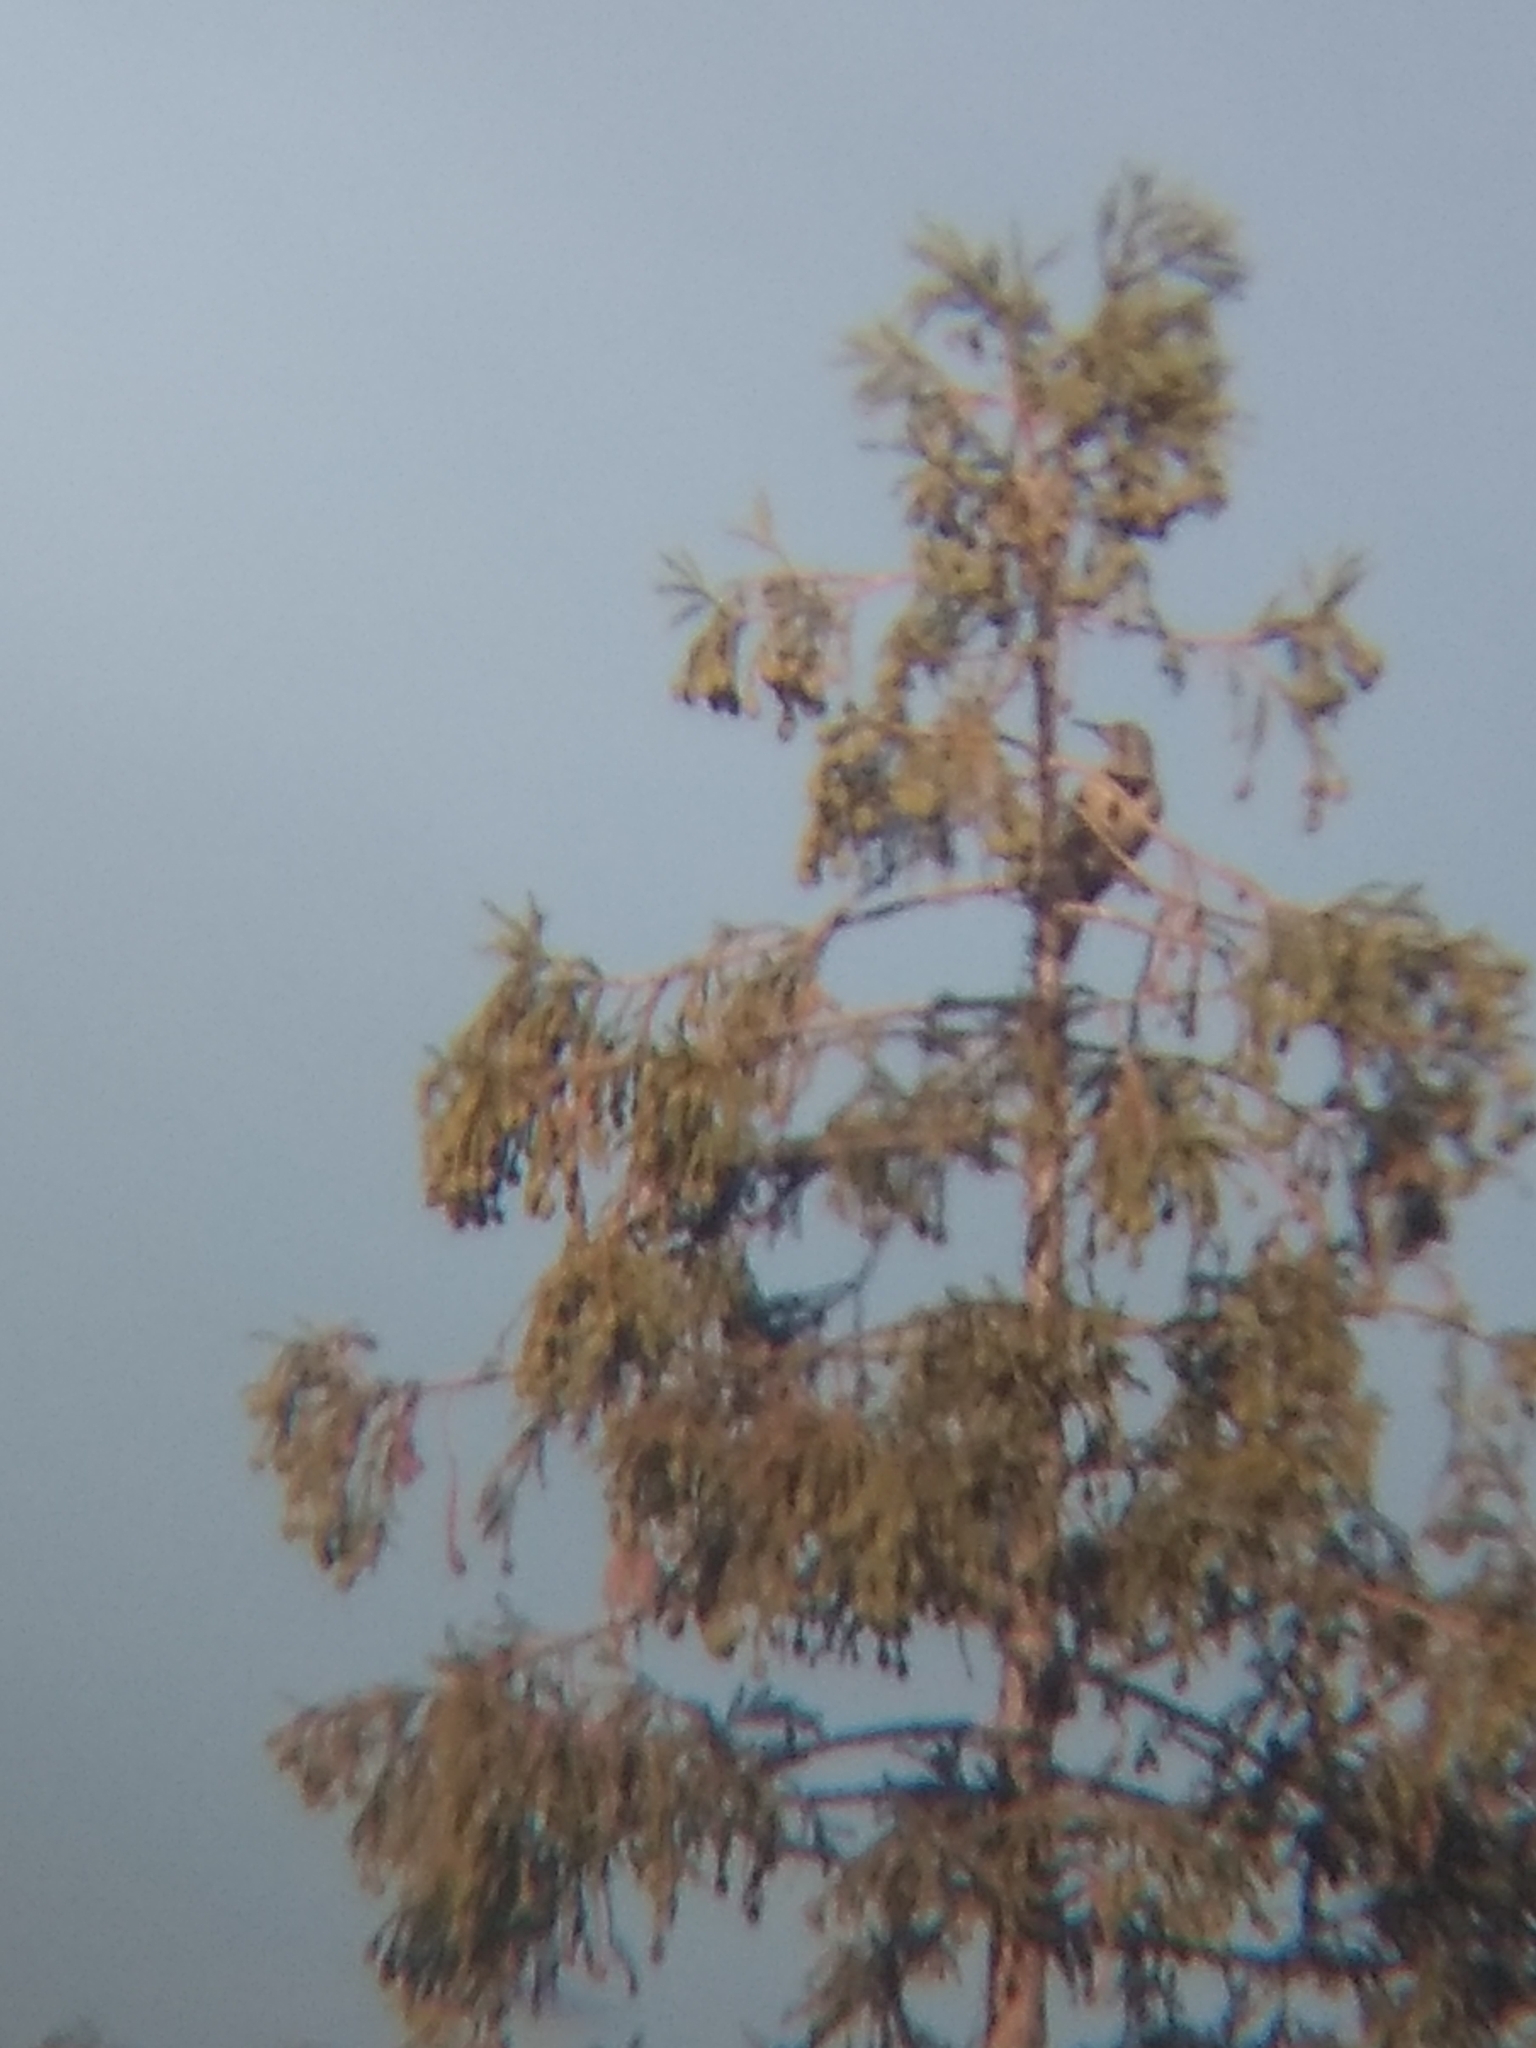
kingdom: Animalia
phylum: Chordata
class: Aves
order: Piciformes
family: Picidae
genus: Colaptes
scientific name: Colaptes auratus
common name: Northern flicker
